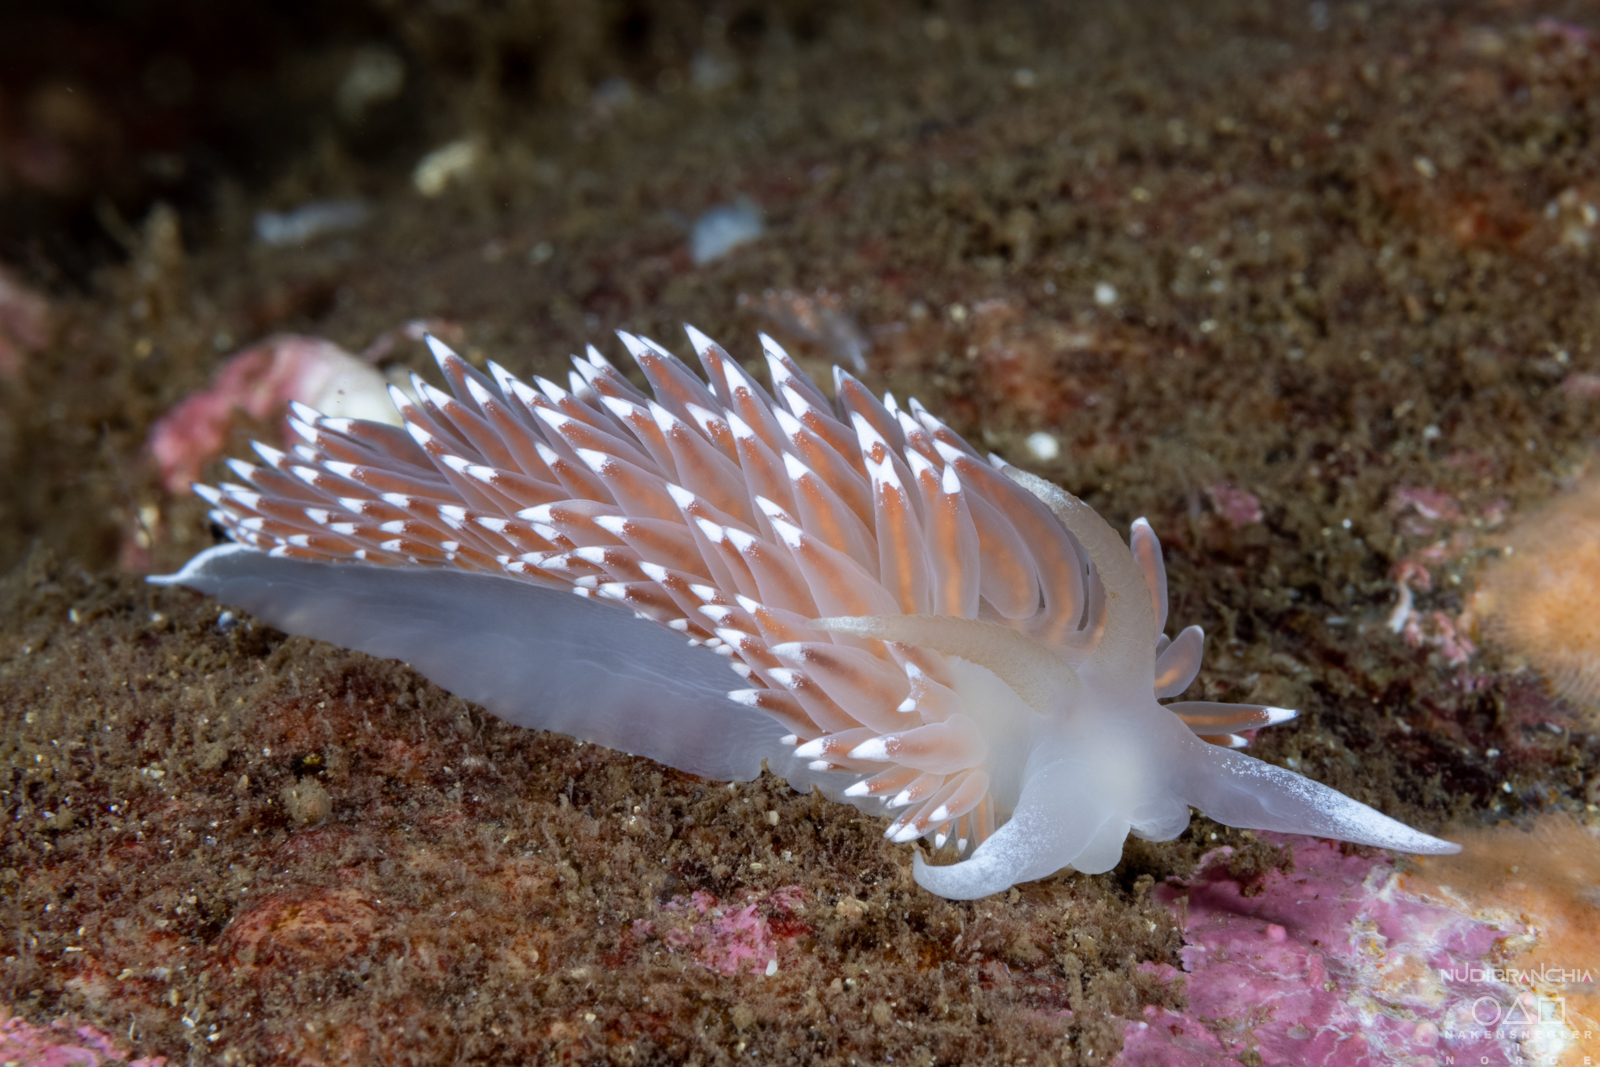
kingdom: Animalia
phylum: Mollusca
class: Gastropoda
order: Nudibranchia
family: Coryphellidae
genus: Coryphella
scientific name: Coryphella nobilis
